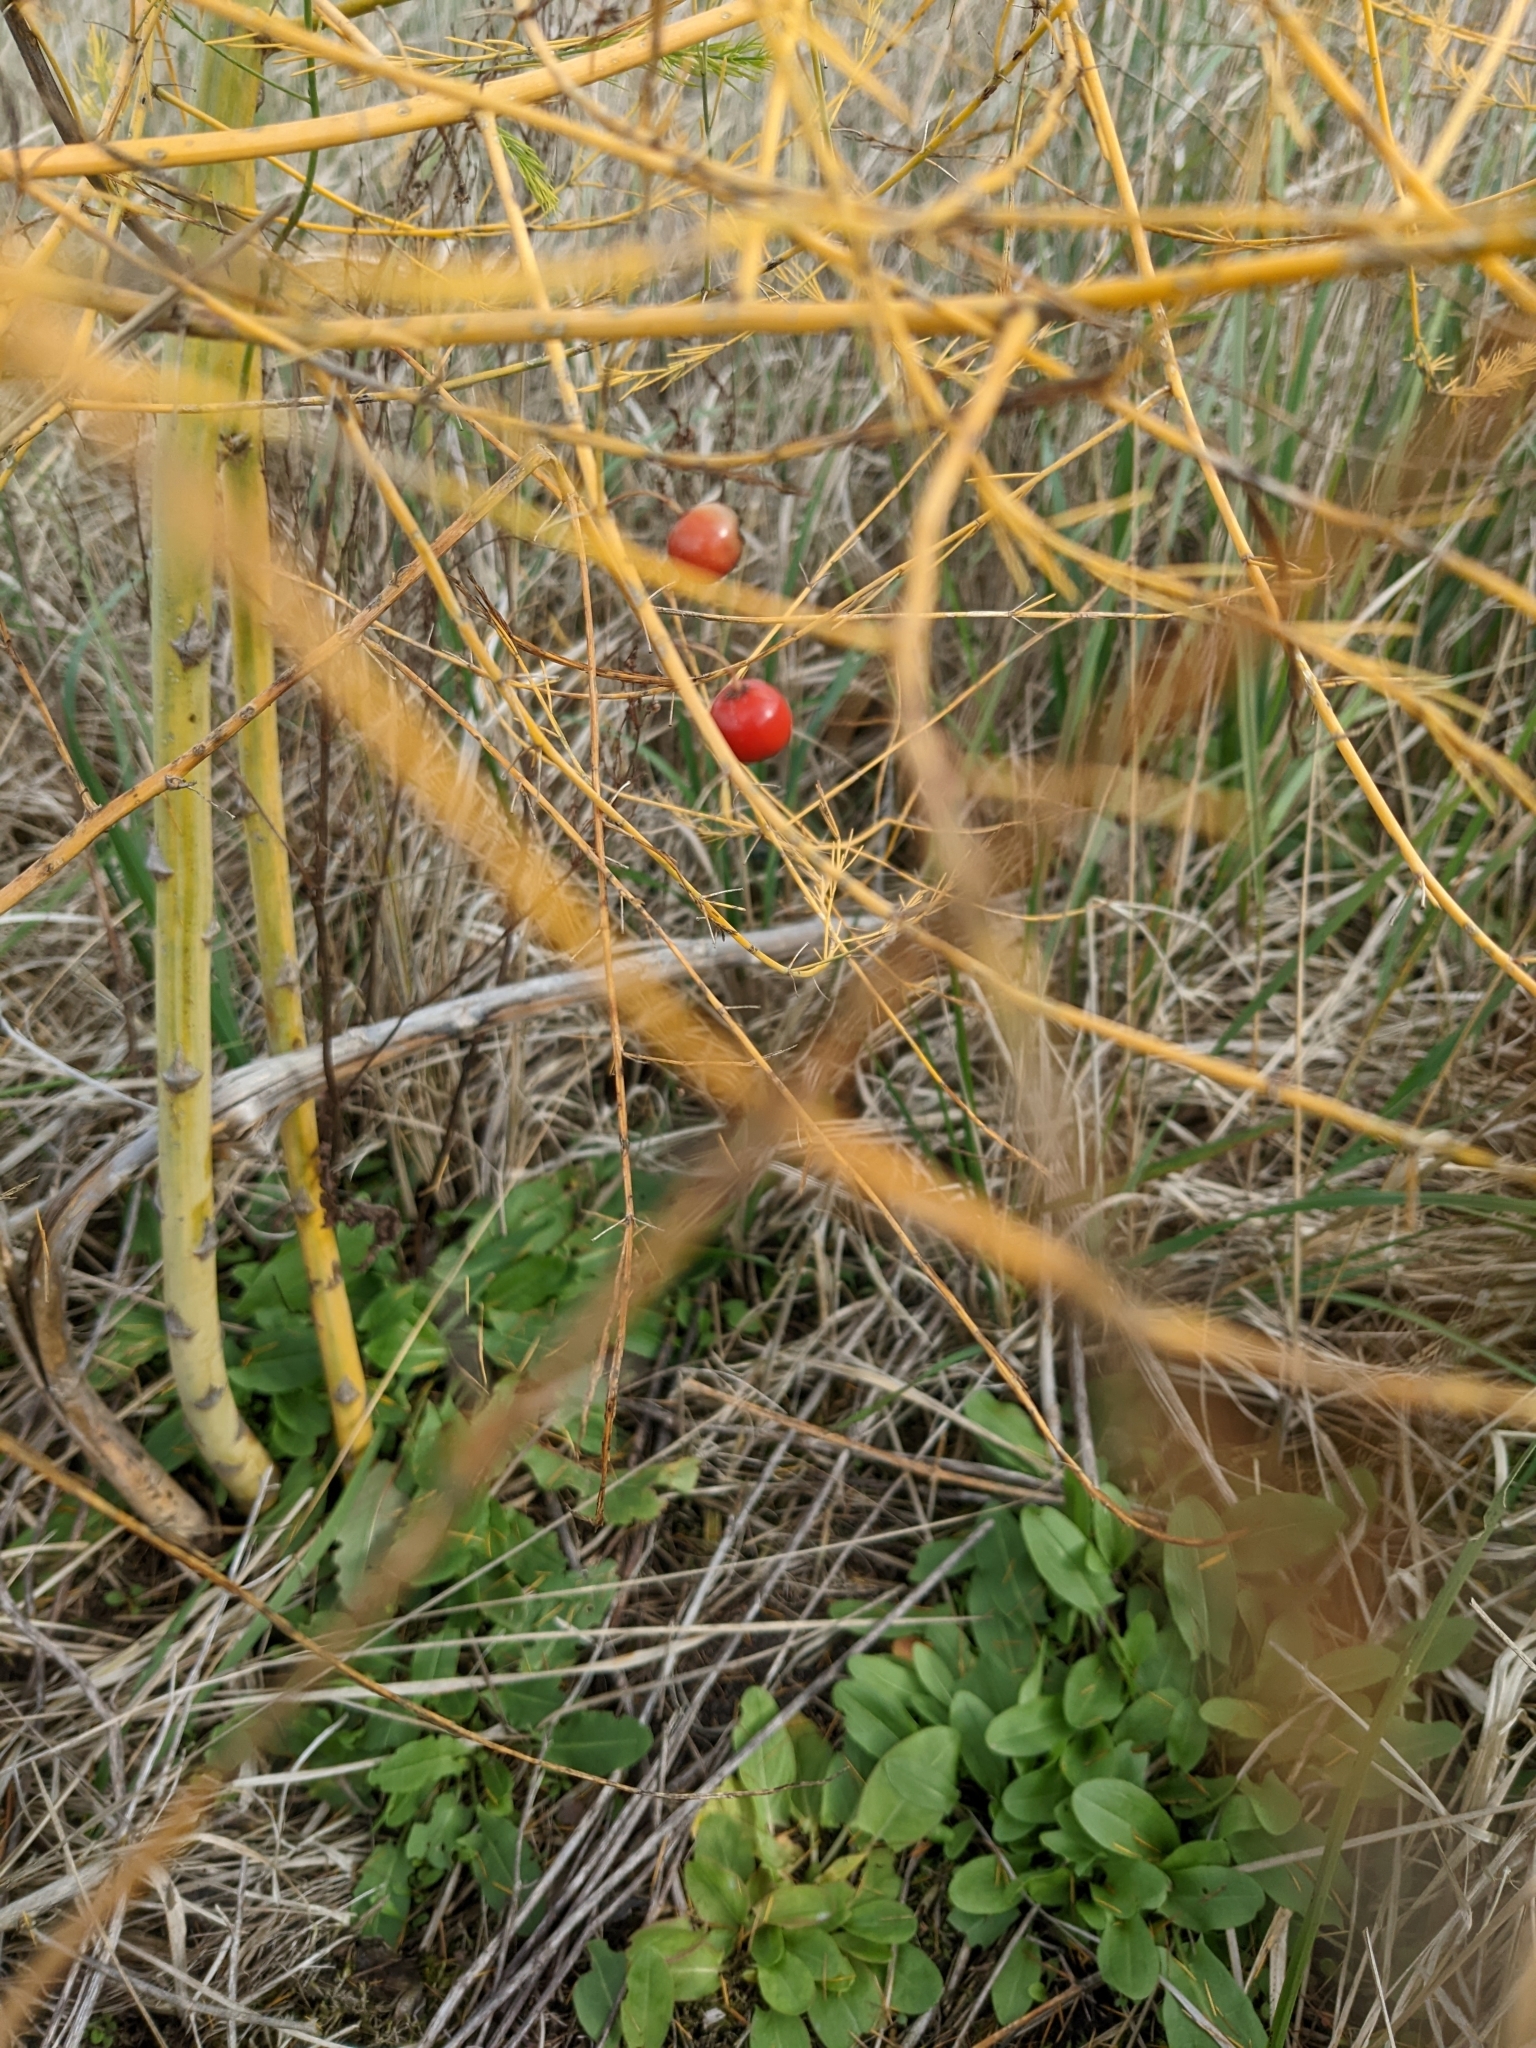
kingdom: Plantae
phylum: Tracheophyta
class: Liliopsida
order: Asparagales
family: Asparagaceae
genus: Asparagus
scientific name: Asparagus officinalis
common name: Garden asparagus
